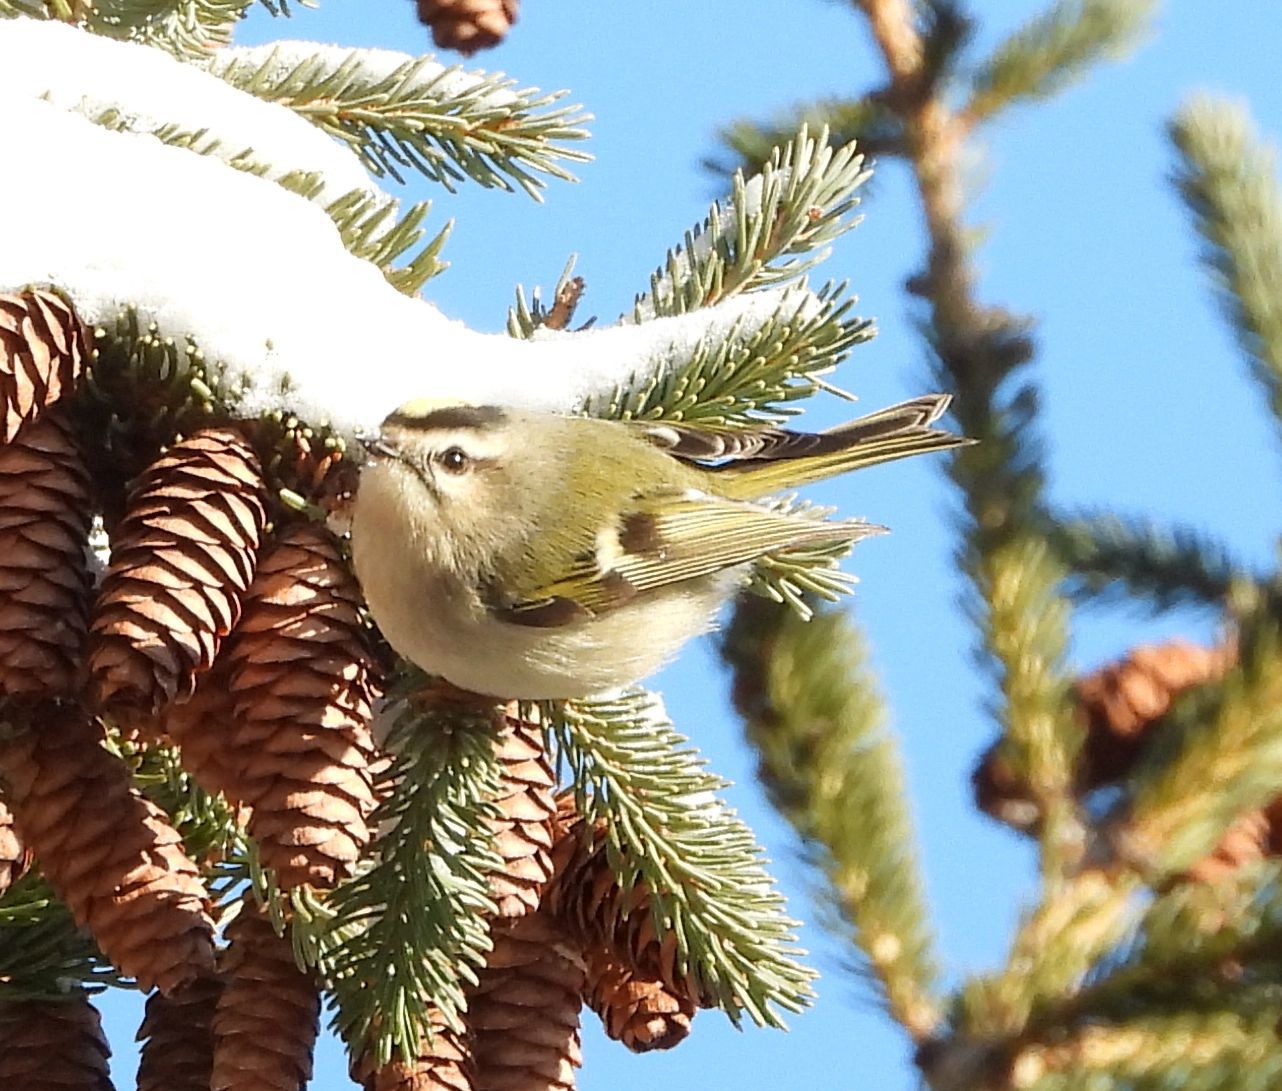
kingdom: Animalia
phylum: Chordata
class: Aves
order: Passeriformes
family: Regulidae
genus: Regulus
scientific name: Regulus satrapa
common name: Golden-crowned kinglet
